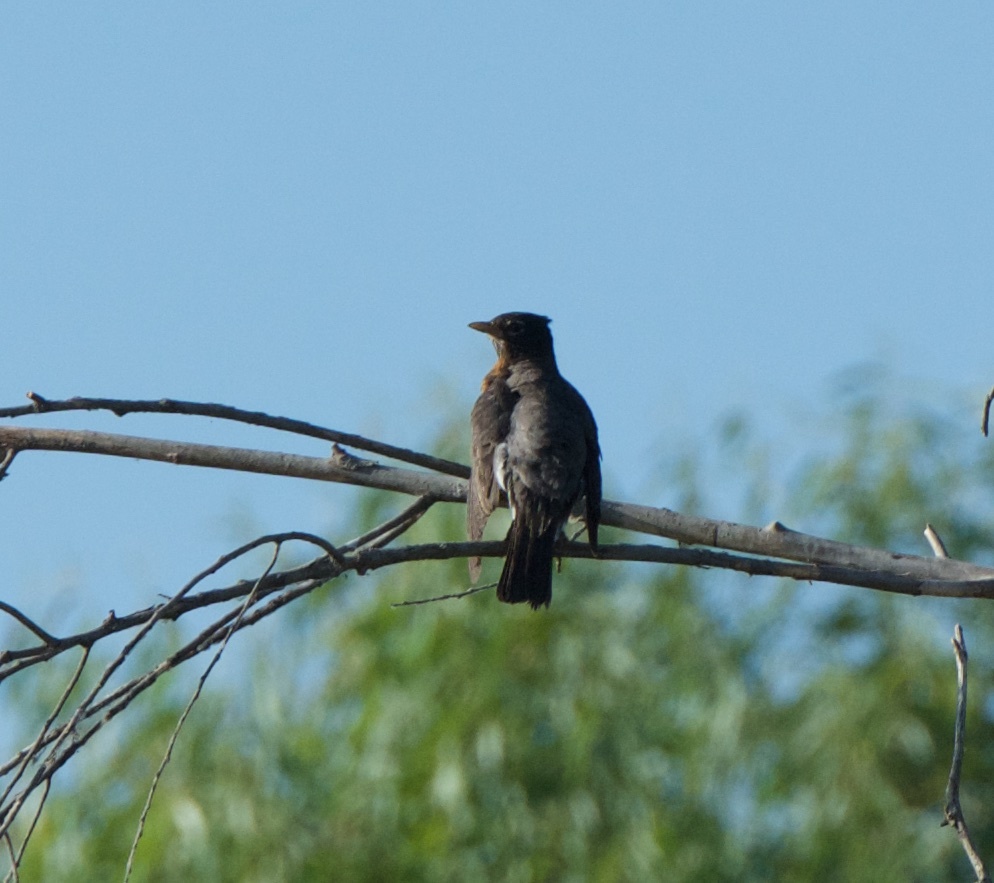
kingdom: Animalia
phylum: Chordata
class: Aves
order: Passeriformes
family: Turdidae
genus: Turdus
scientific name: Turdus migratorius
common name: American robin
